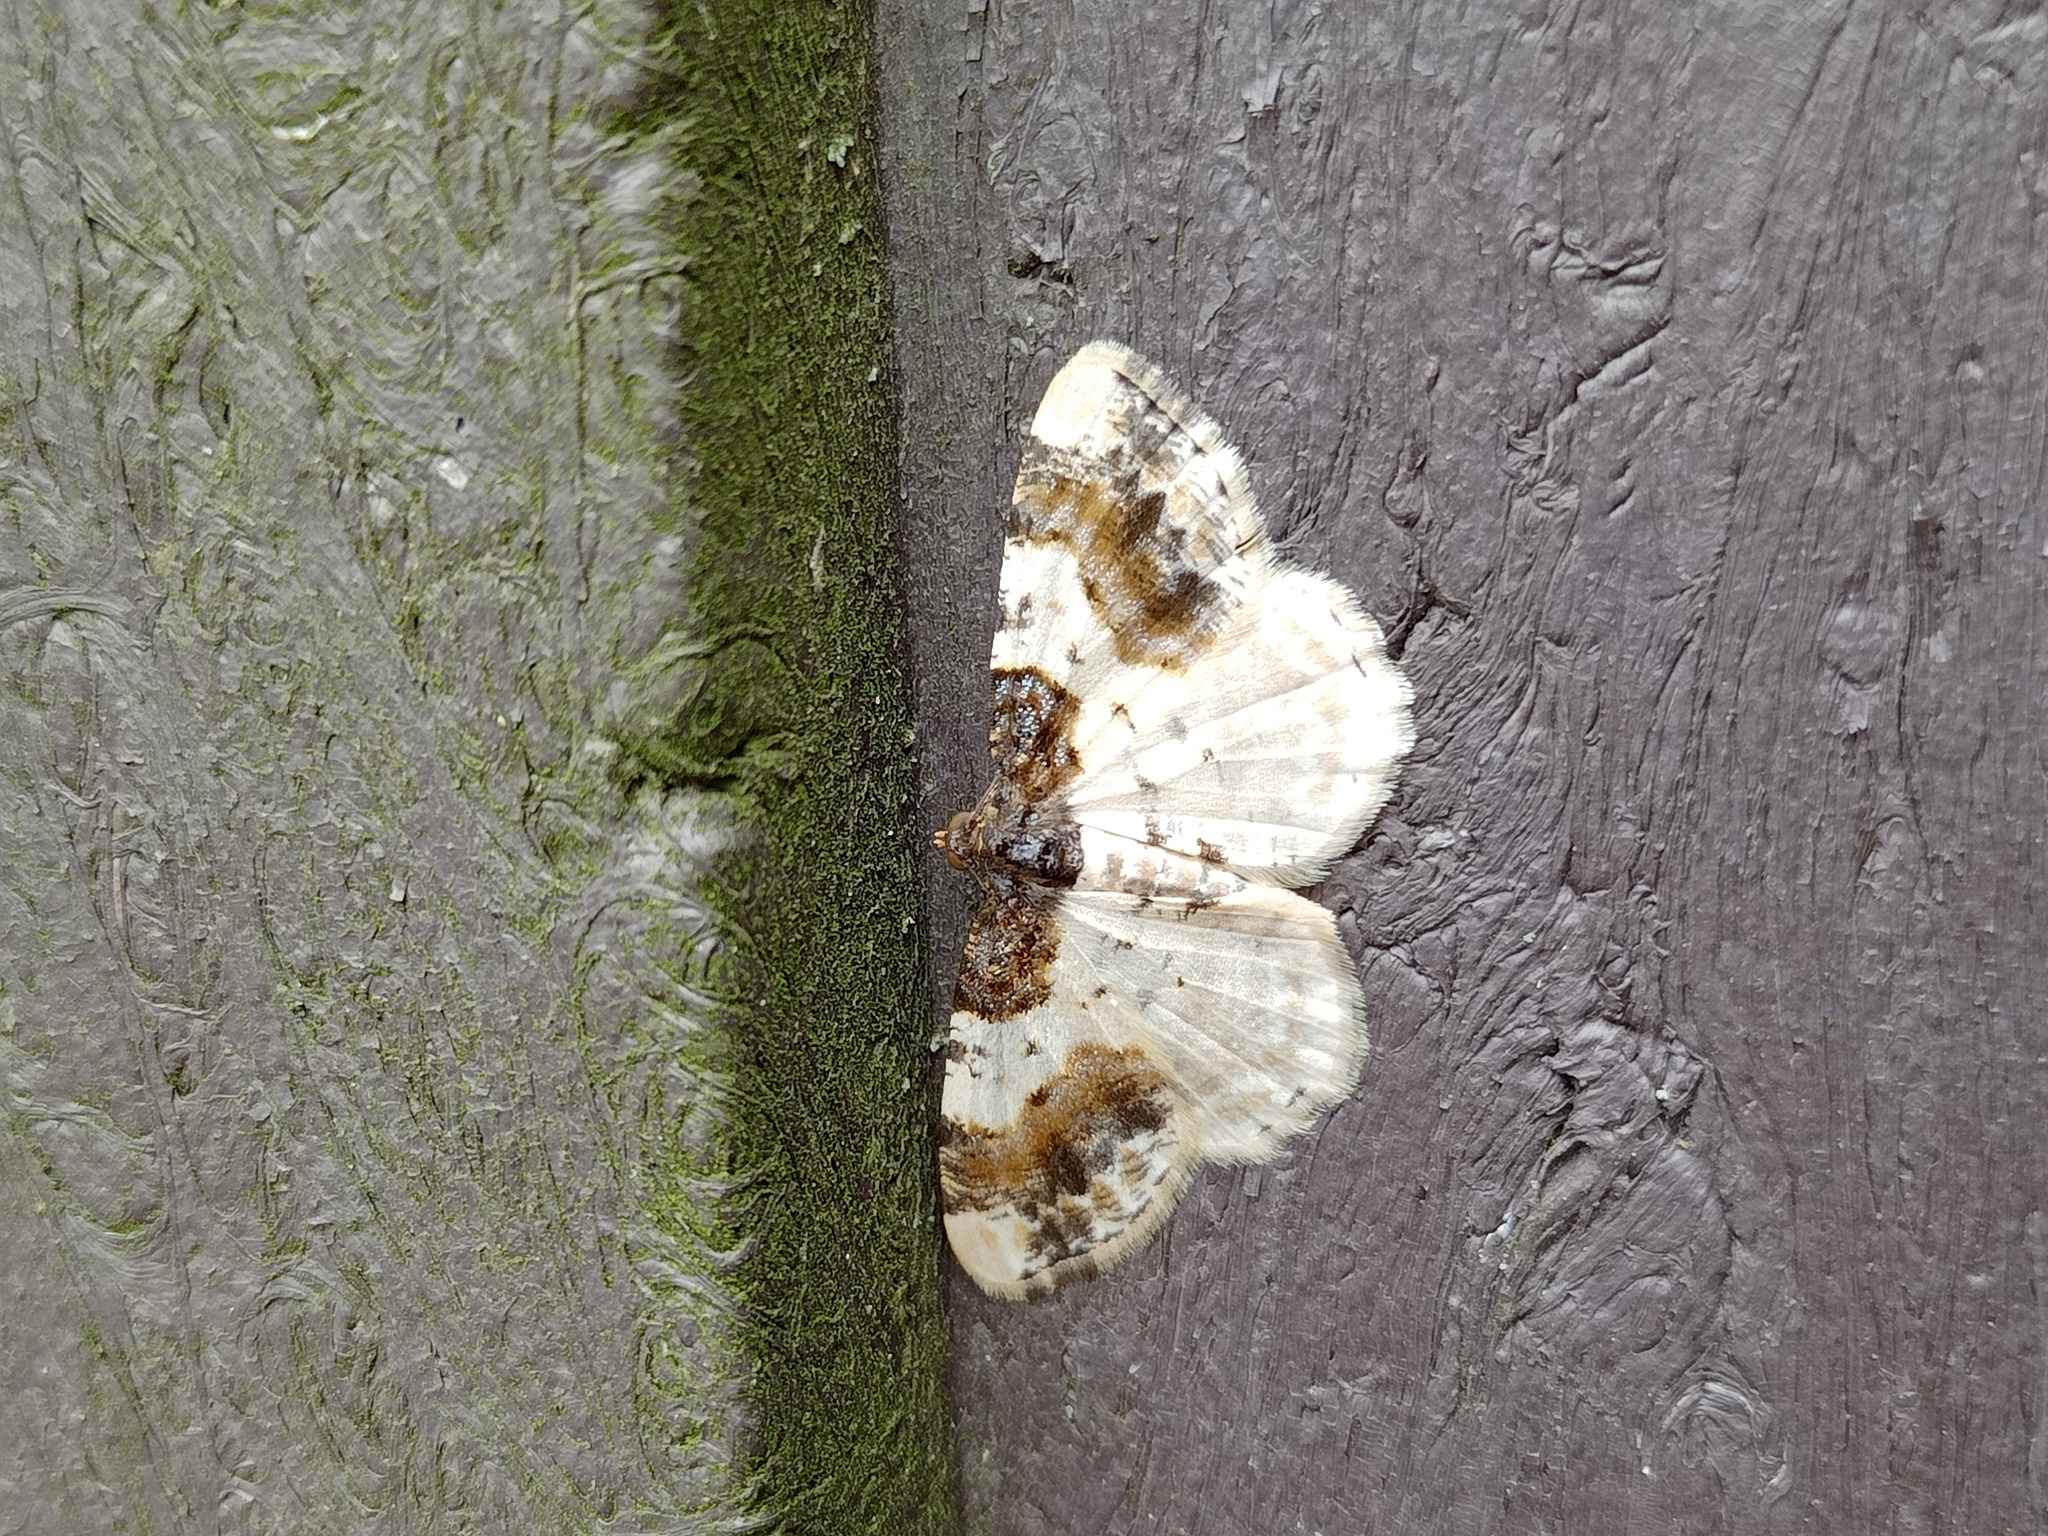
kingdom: Animalia
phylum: Arthropoda
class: Insecta
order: Lepidoptera
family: Geometridae
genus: Ligdia
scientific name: Ligdia adustata
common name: Scorched carpet
